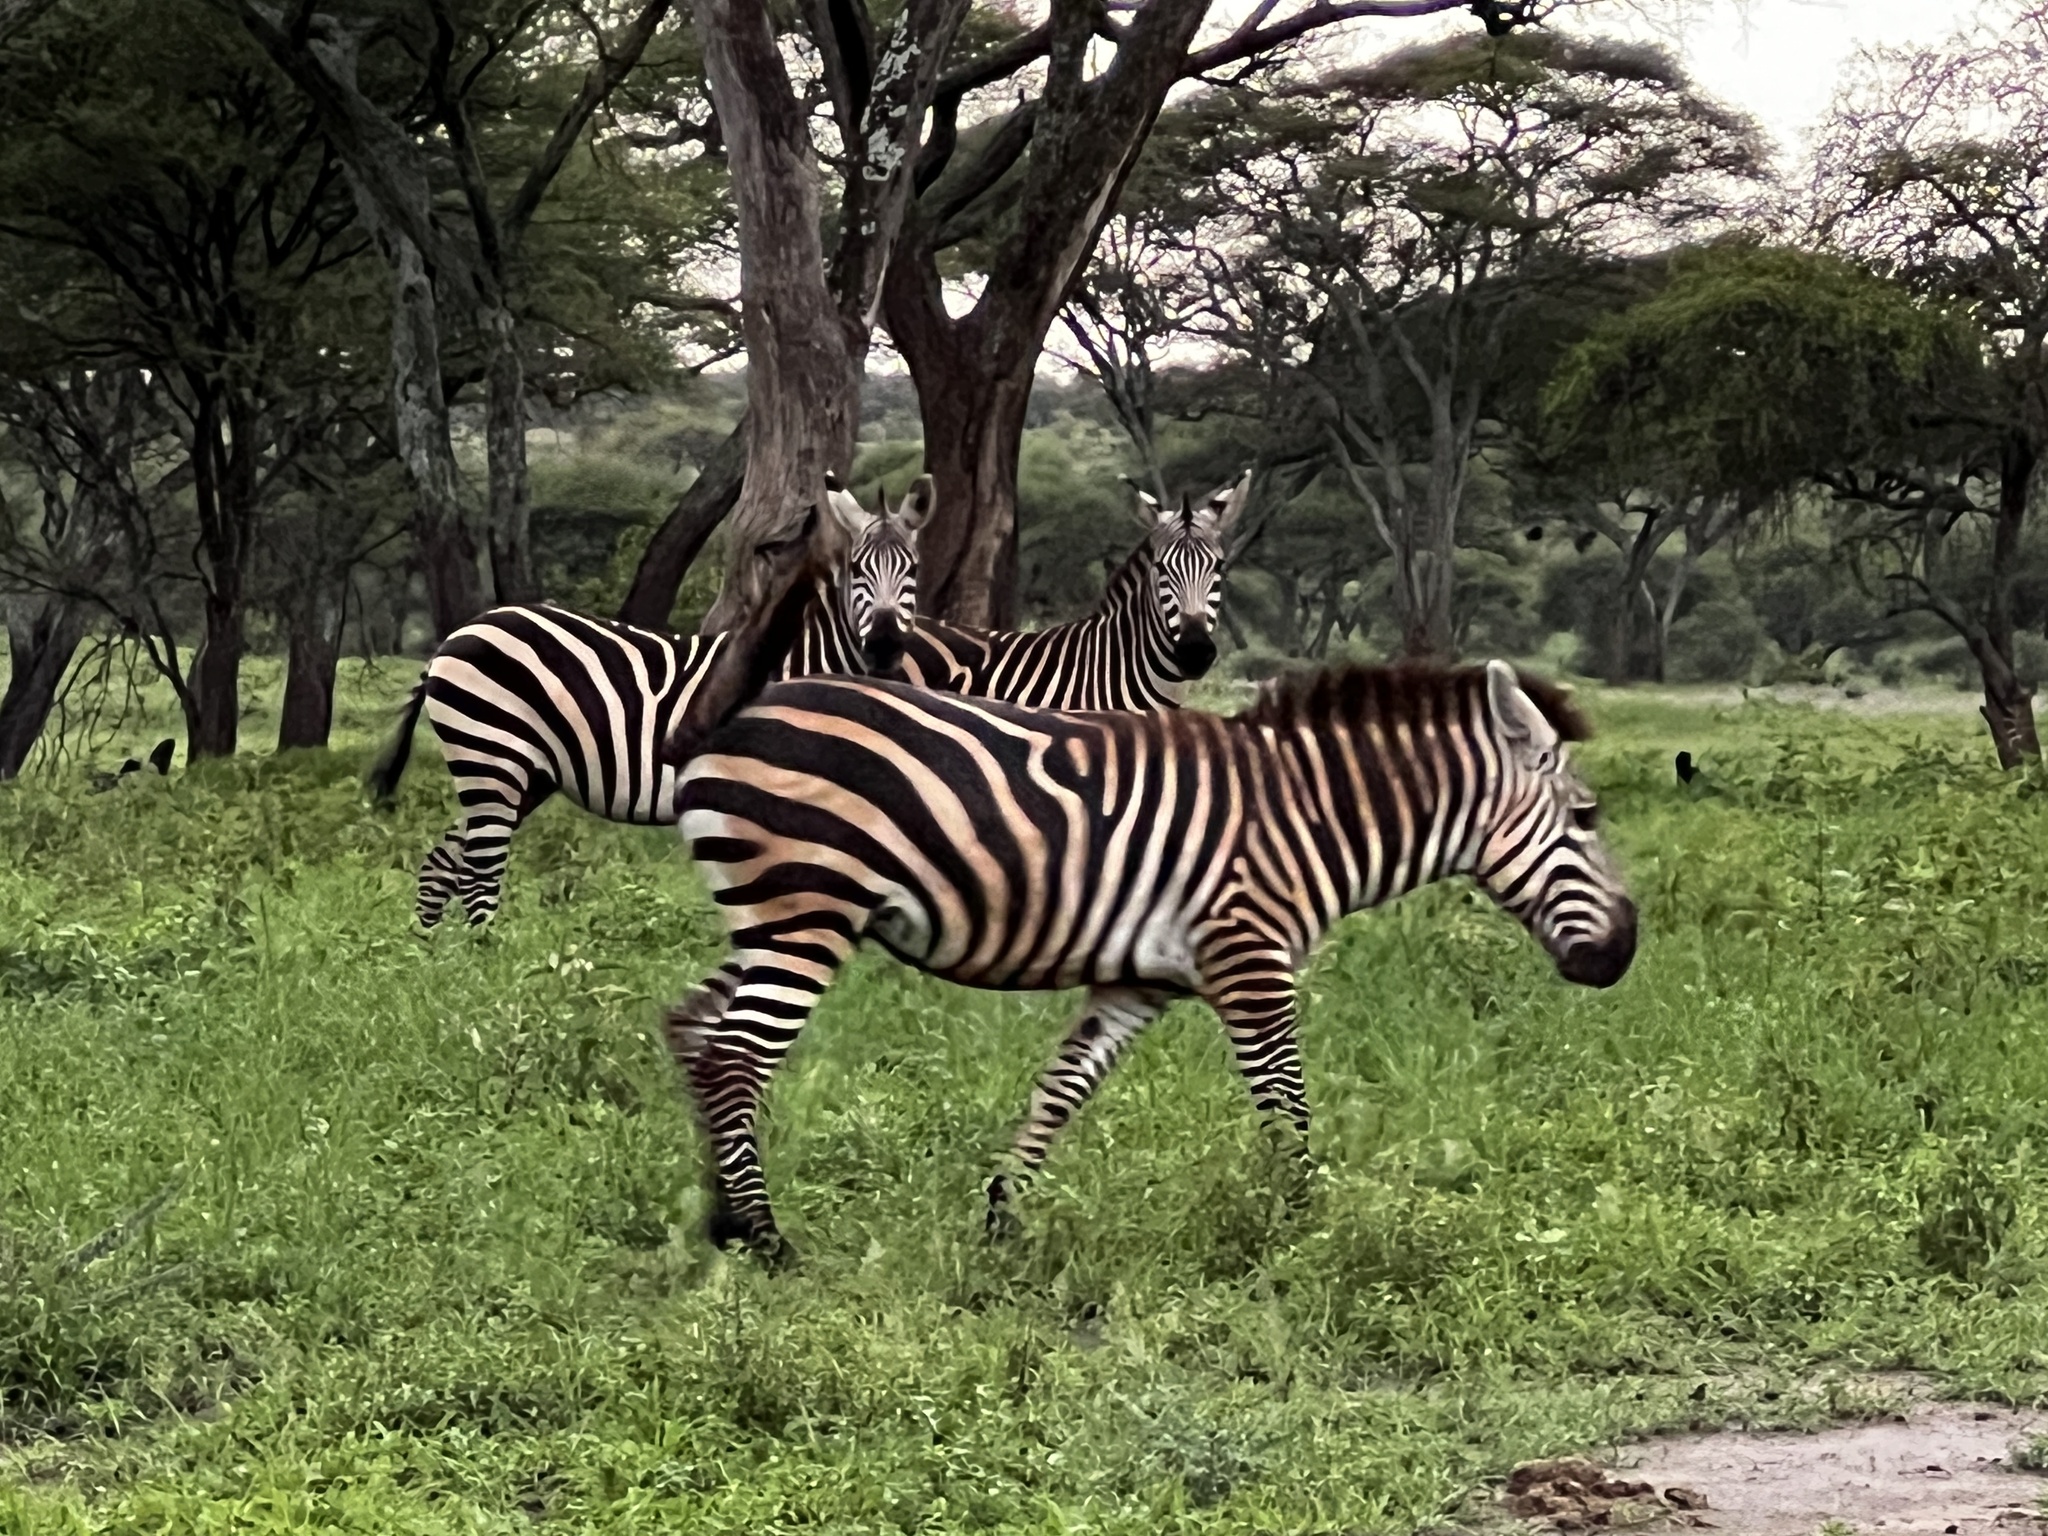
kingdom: Animalia
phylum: Chordata
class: Mammalia
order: Perissodactyla
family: Equidae
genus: Equus
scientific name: Equus quagga
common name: Plains zebra
